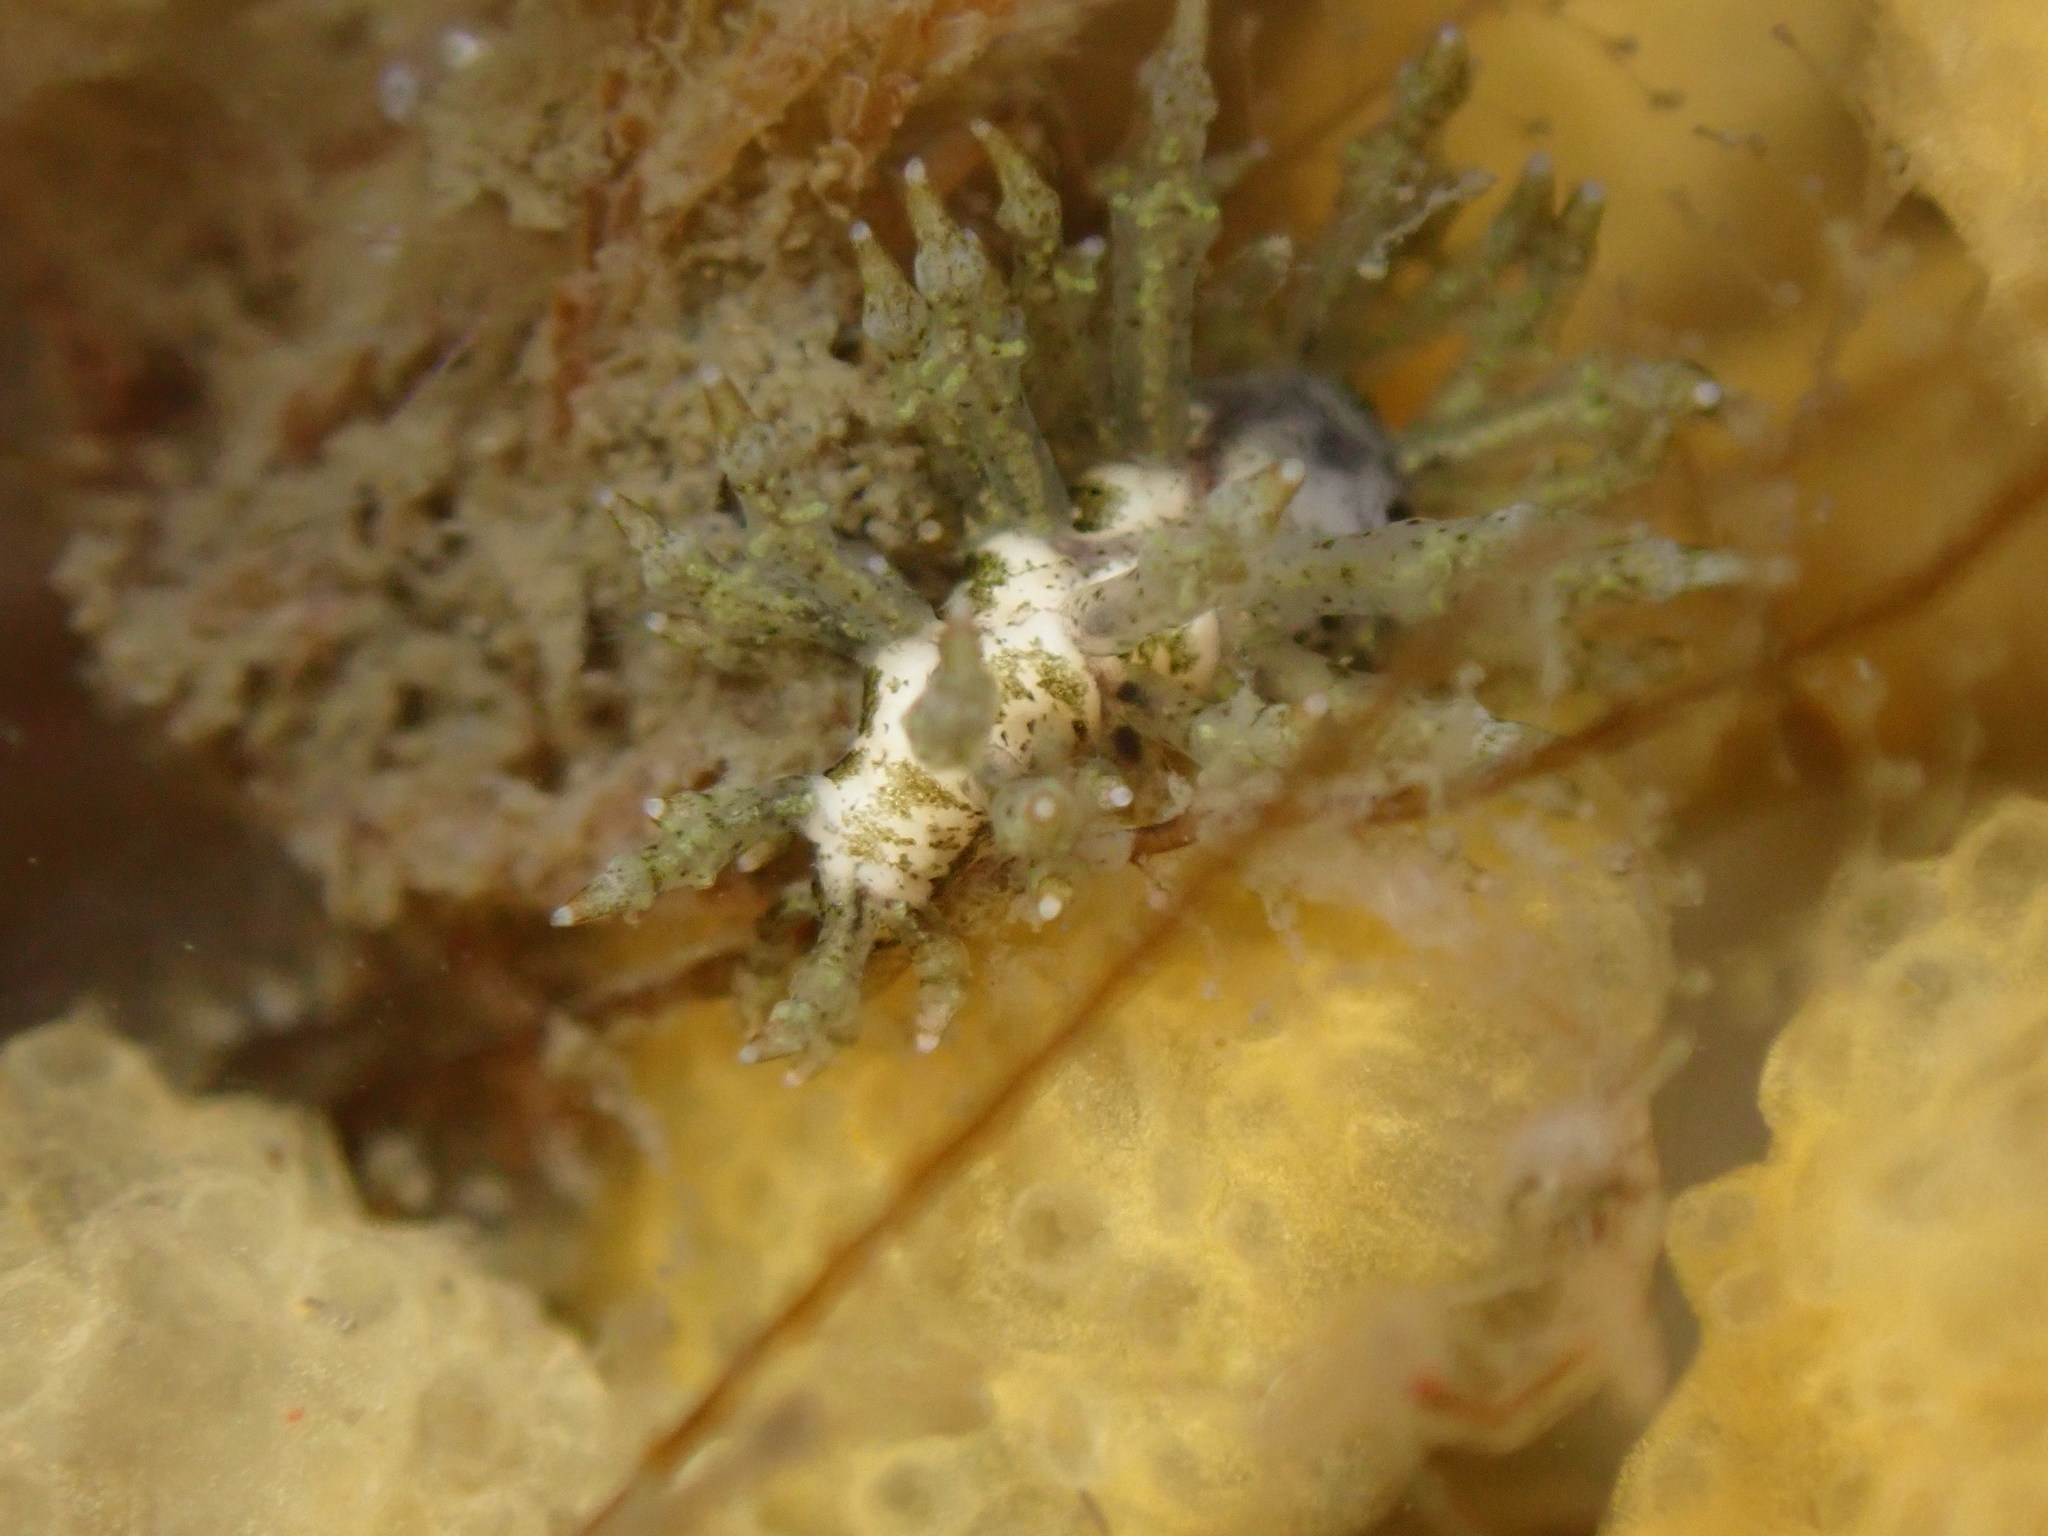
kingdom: Animalia
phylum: Mollusca
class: Gastropoda
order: Nudibranchia
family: Eubranchidae
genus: Eubranchus
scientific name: Eubranchus rustyus
